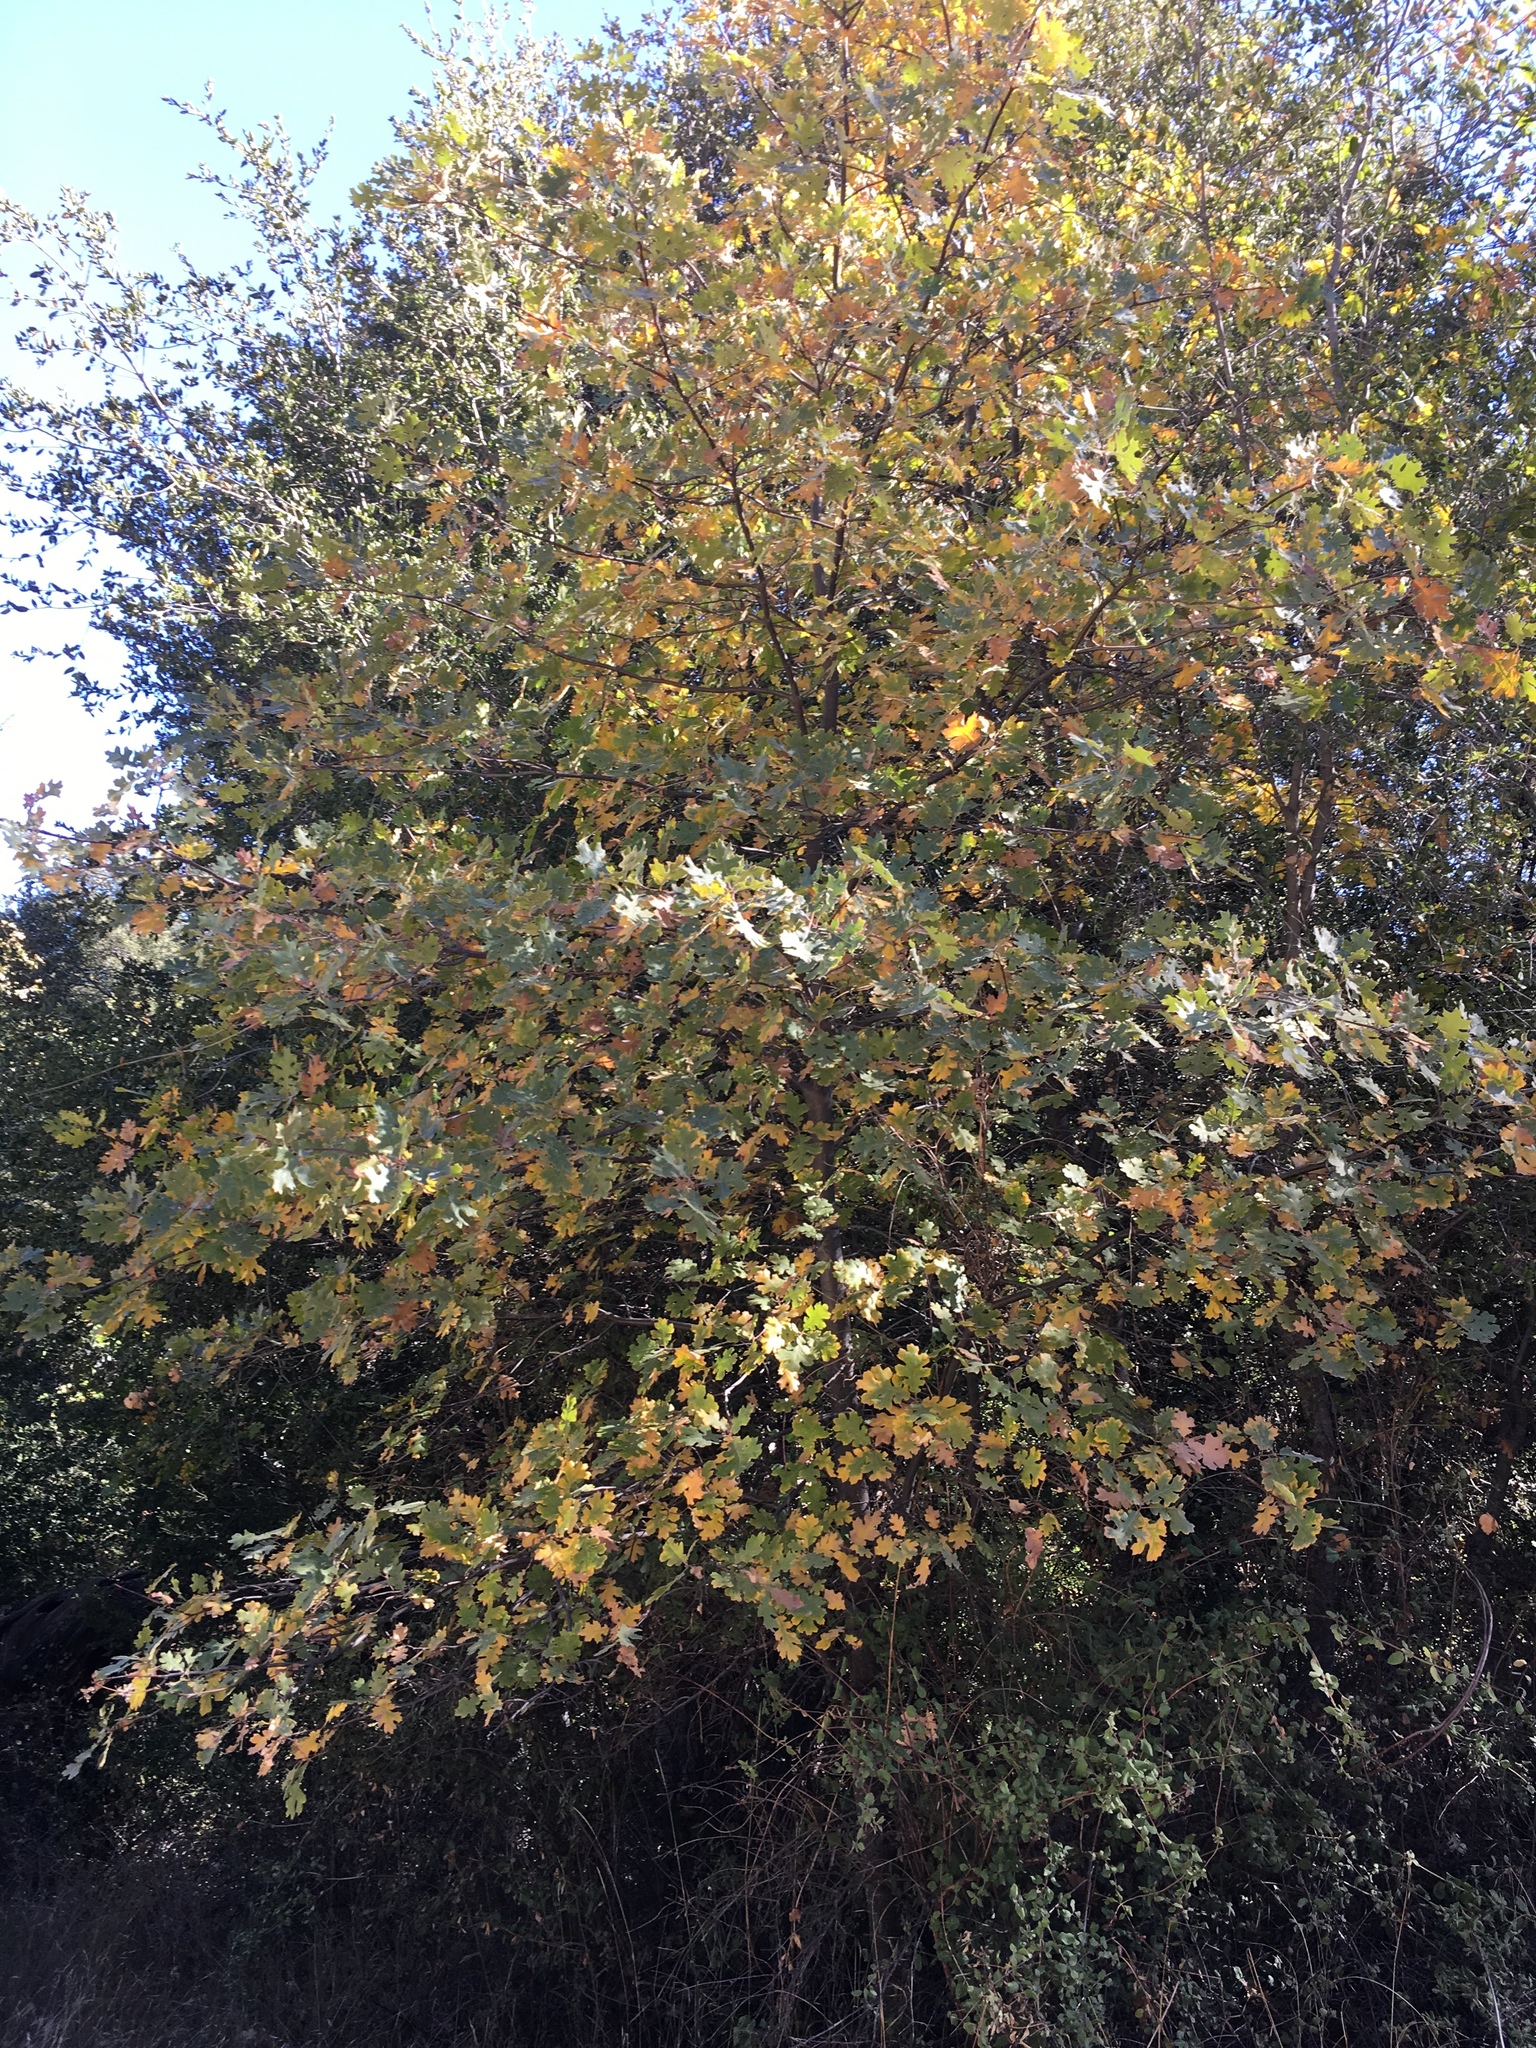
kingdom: Plantae
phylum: Tracheophyta
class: Magnoliopsida
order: Fagales
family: Fagaceae
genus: Quercus
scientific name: Quercus kelloggii
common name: California black oak
